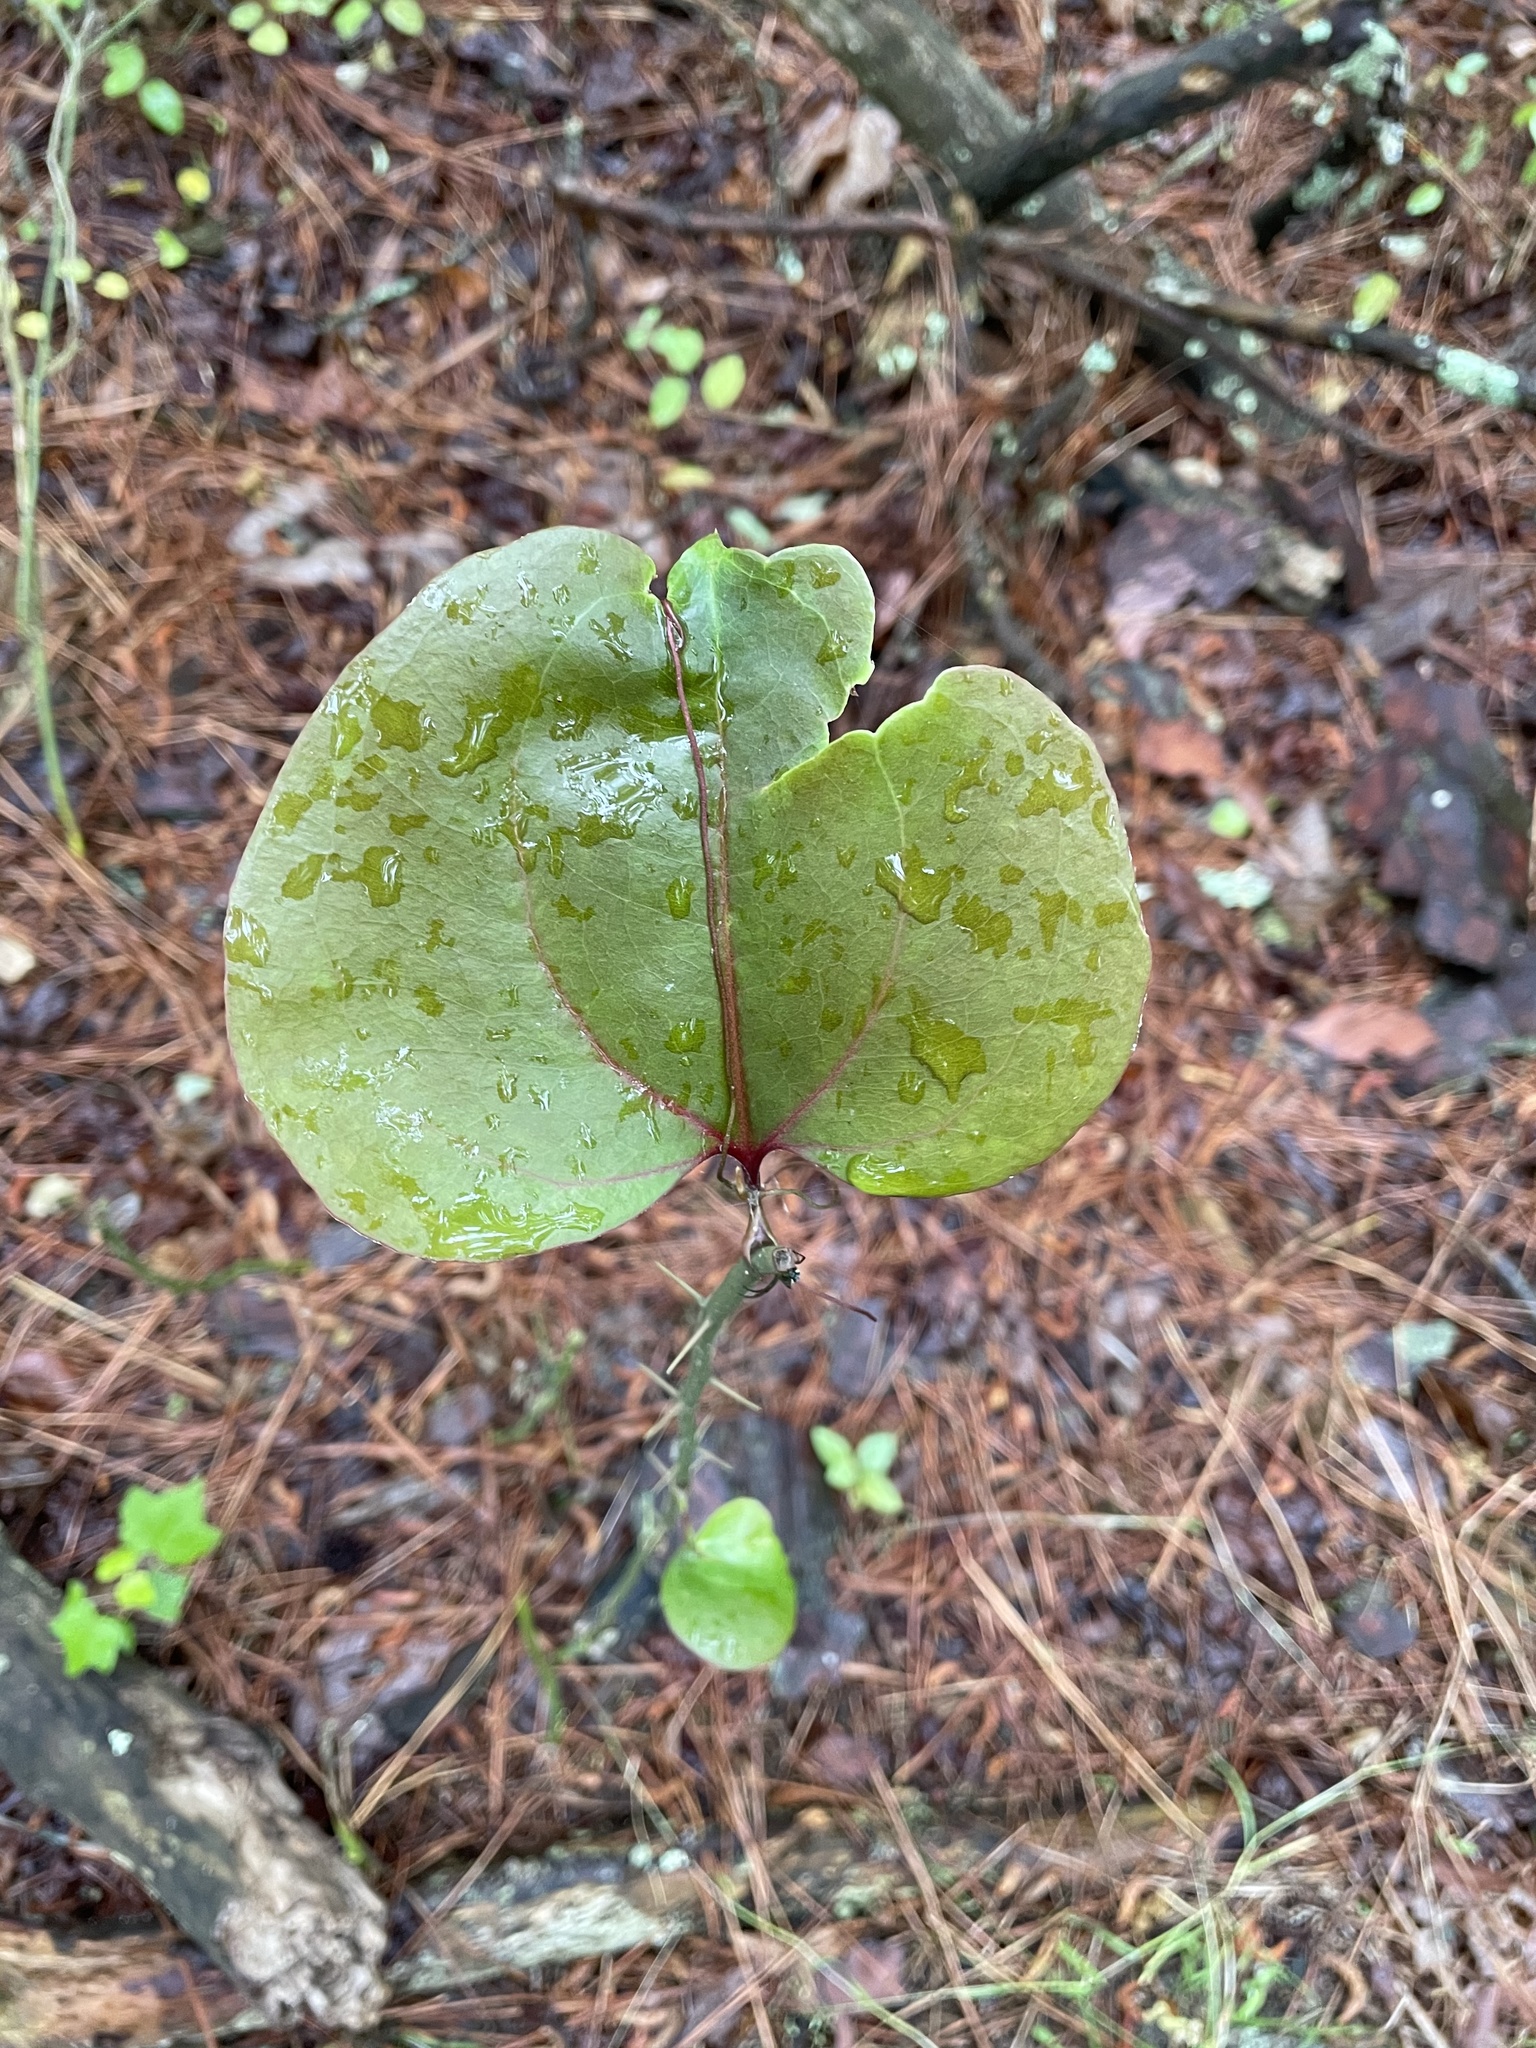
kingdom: Plantae
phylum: Tracheophyta
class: Liliopsida
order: Liliales
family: Smilacaceae
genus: Smilax
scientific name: Smilax rotundifolia
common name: Bullbriar
